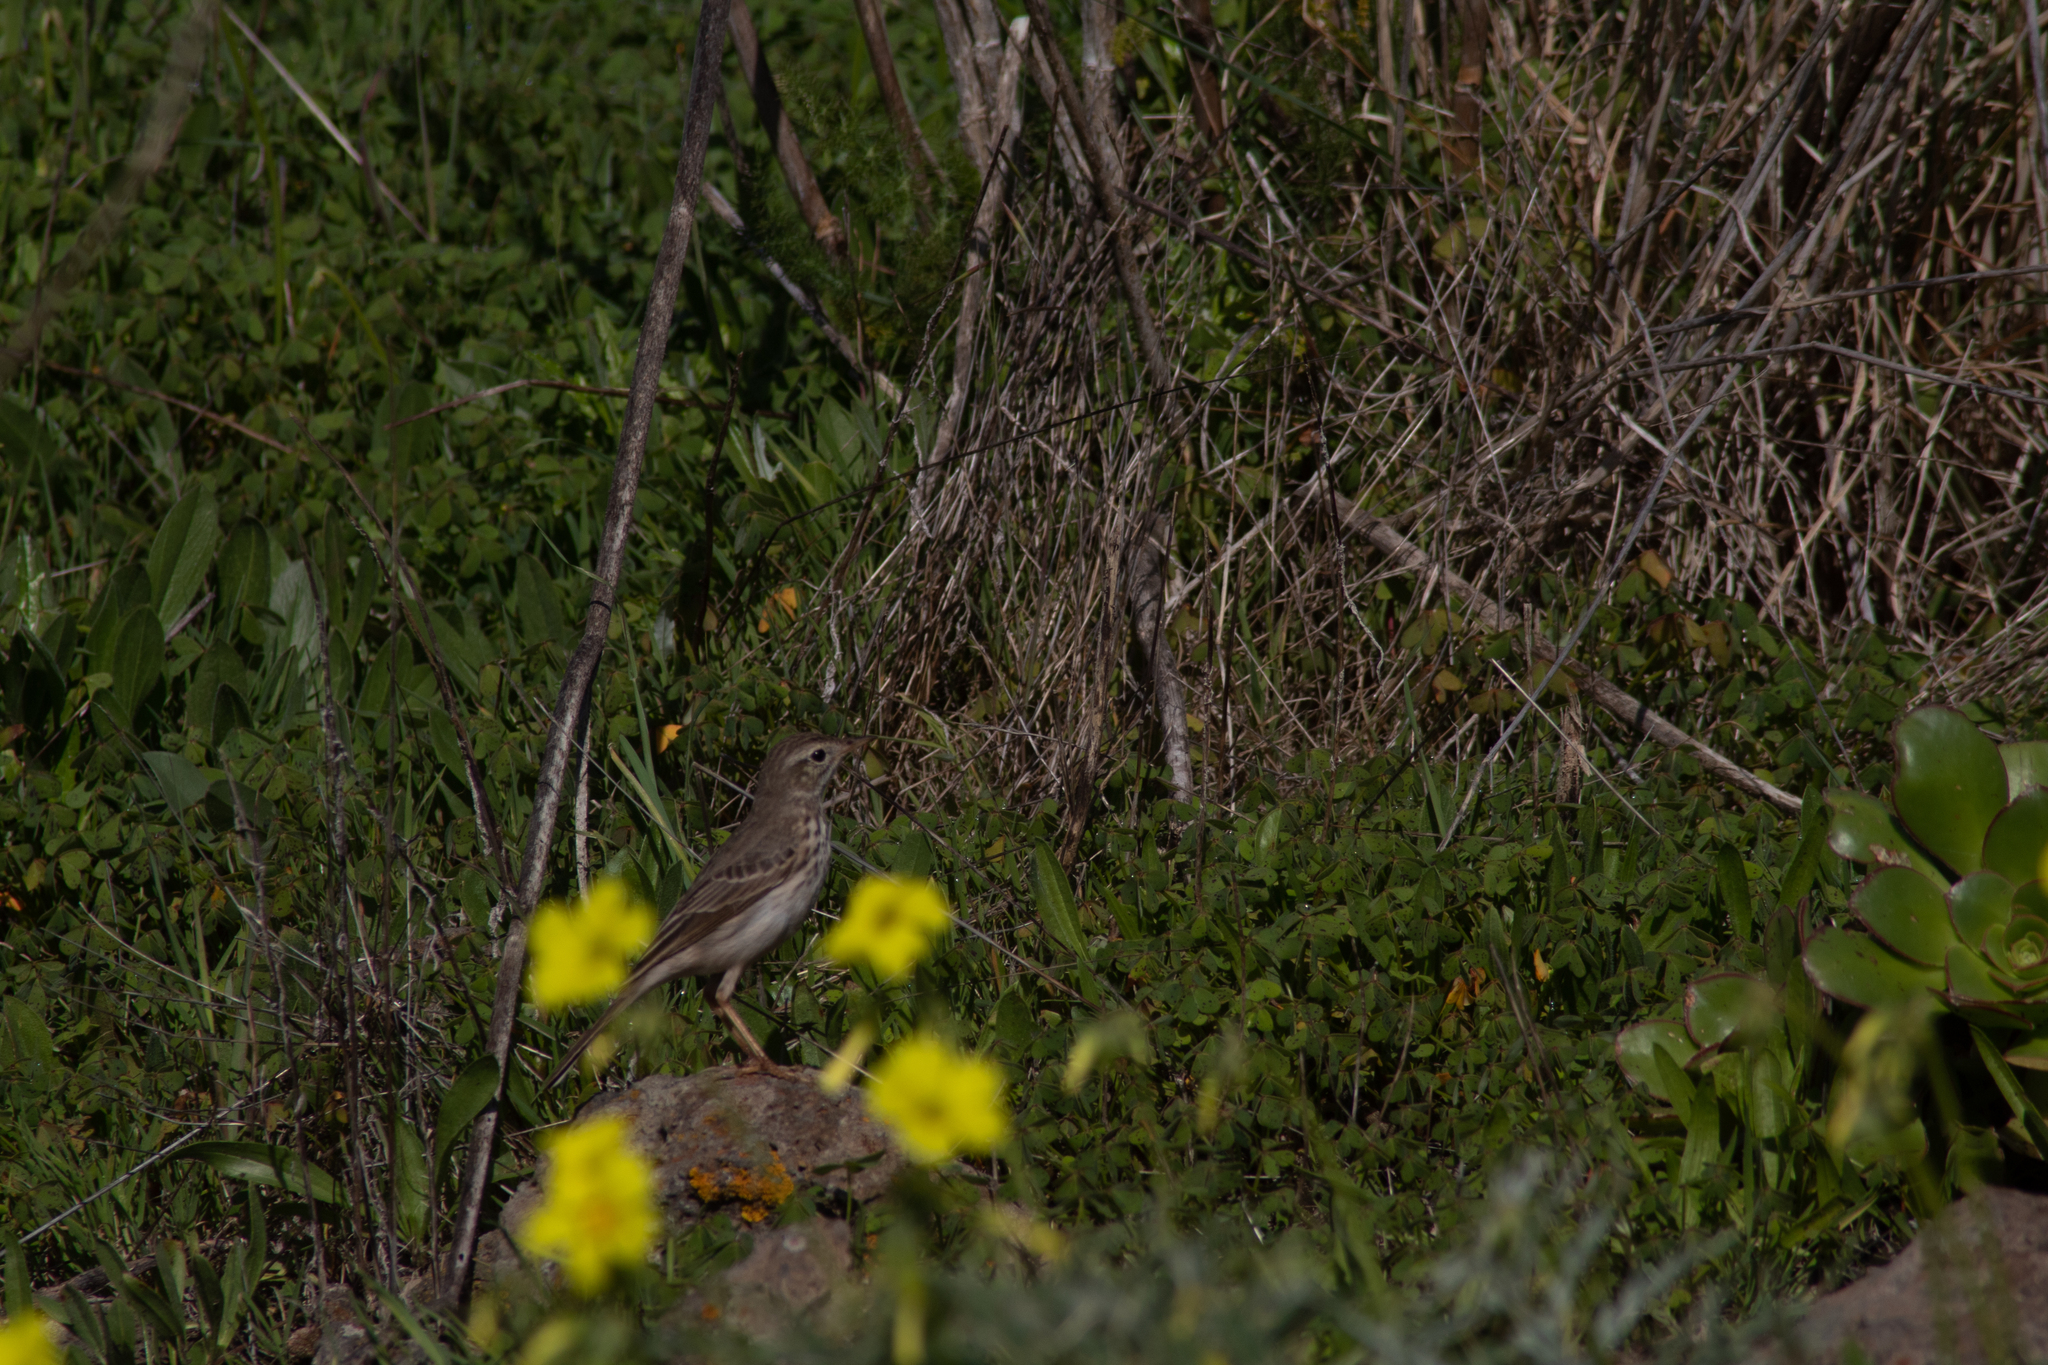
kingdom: Animalia
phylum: Chordata
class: Aves
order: Passeriformes
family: Motacillidae
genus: Anthus
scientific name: Anthus berthelotii
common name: Berthelot's pipit
